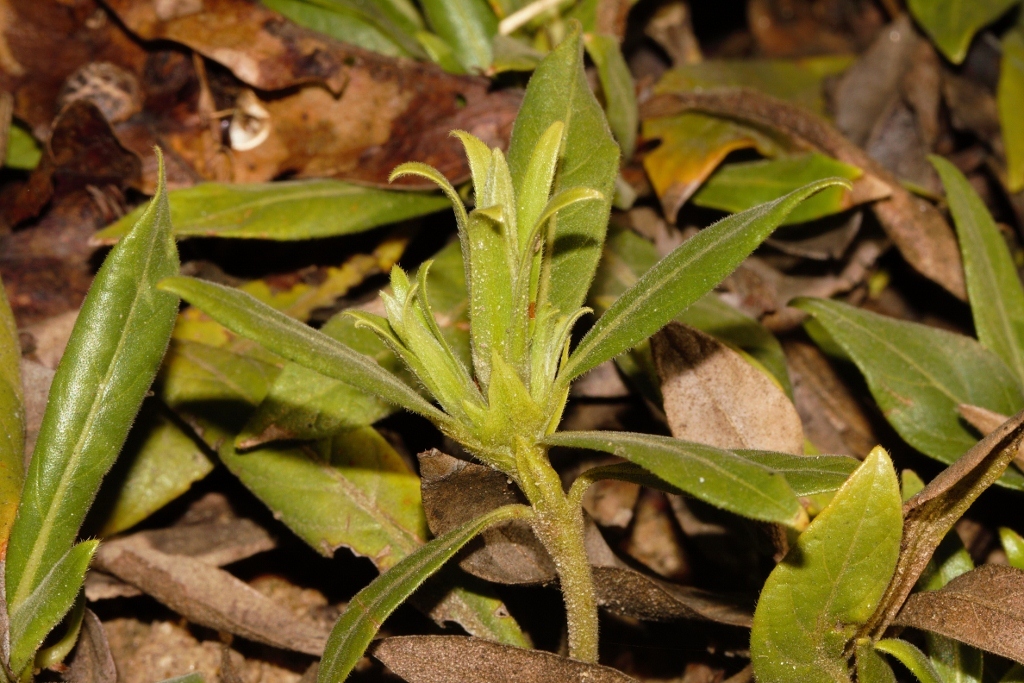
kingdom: Plantae
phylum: Tracheophyta
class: Magnoliopsida
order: Gentianales
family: Rubiaceae
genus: Leptactina
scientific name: Leptactina benguelensis
